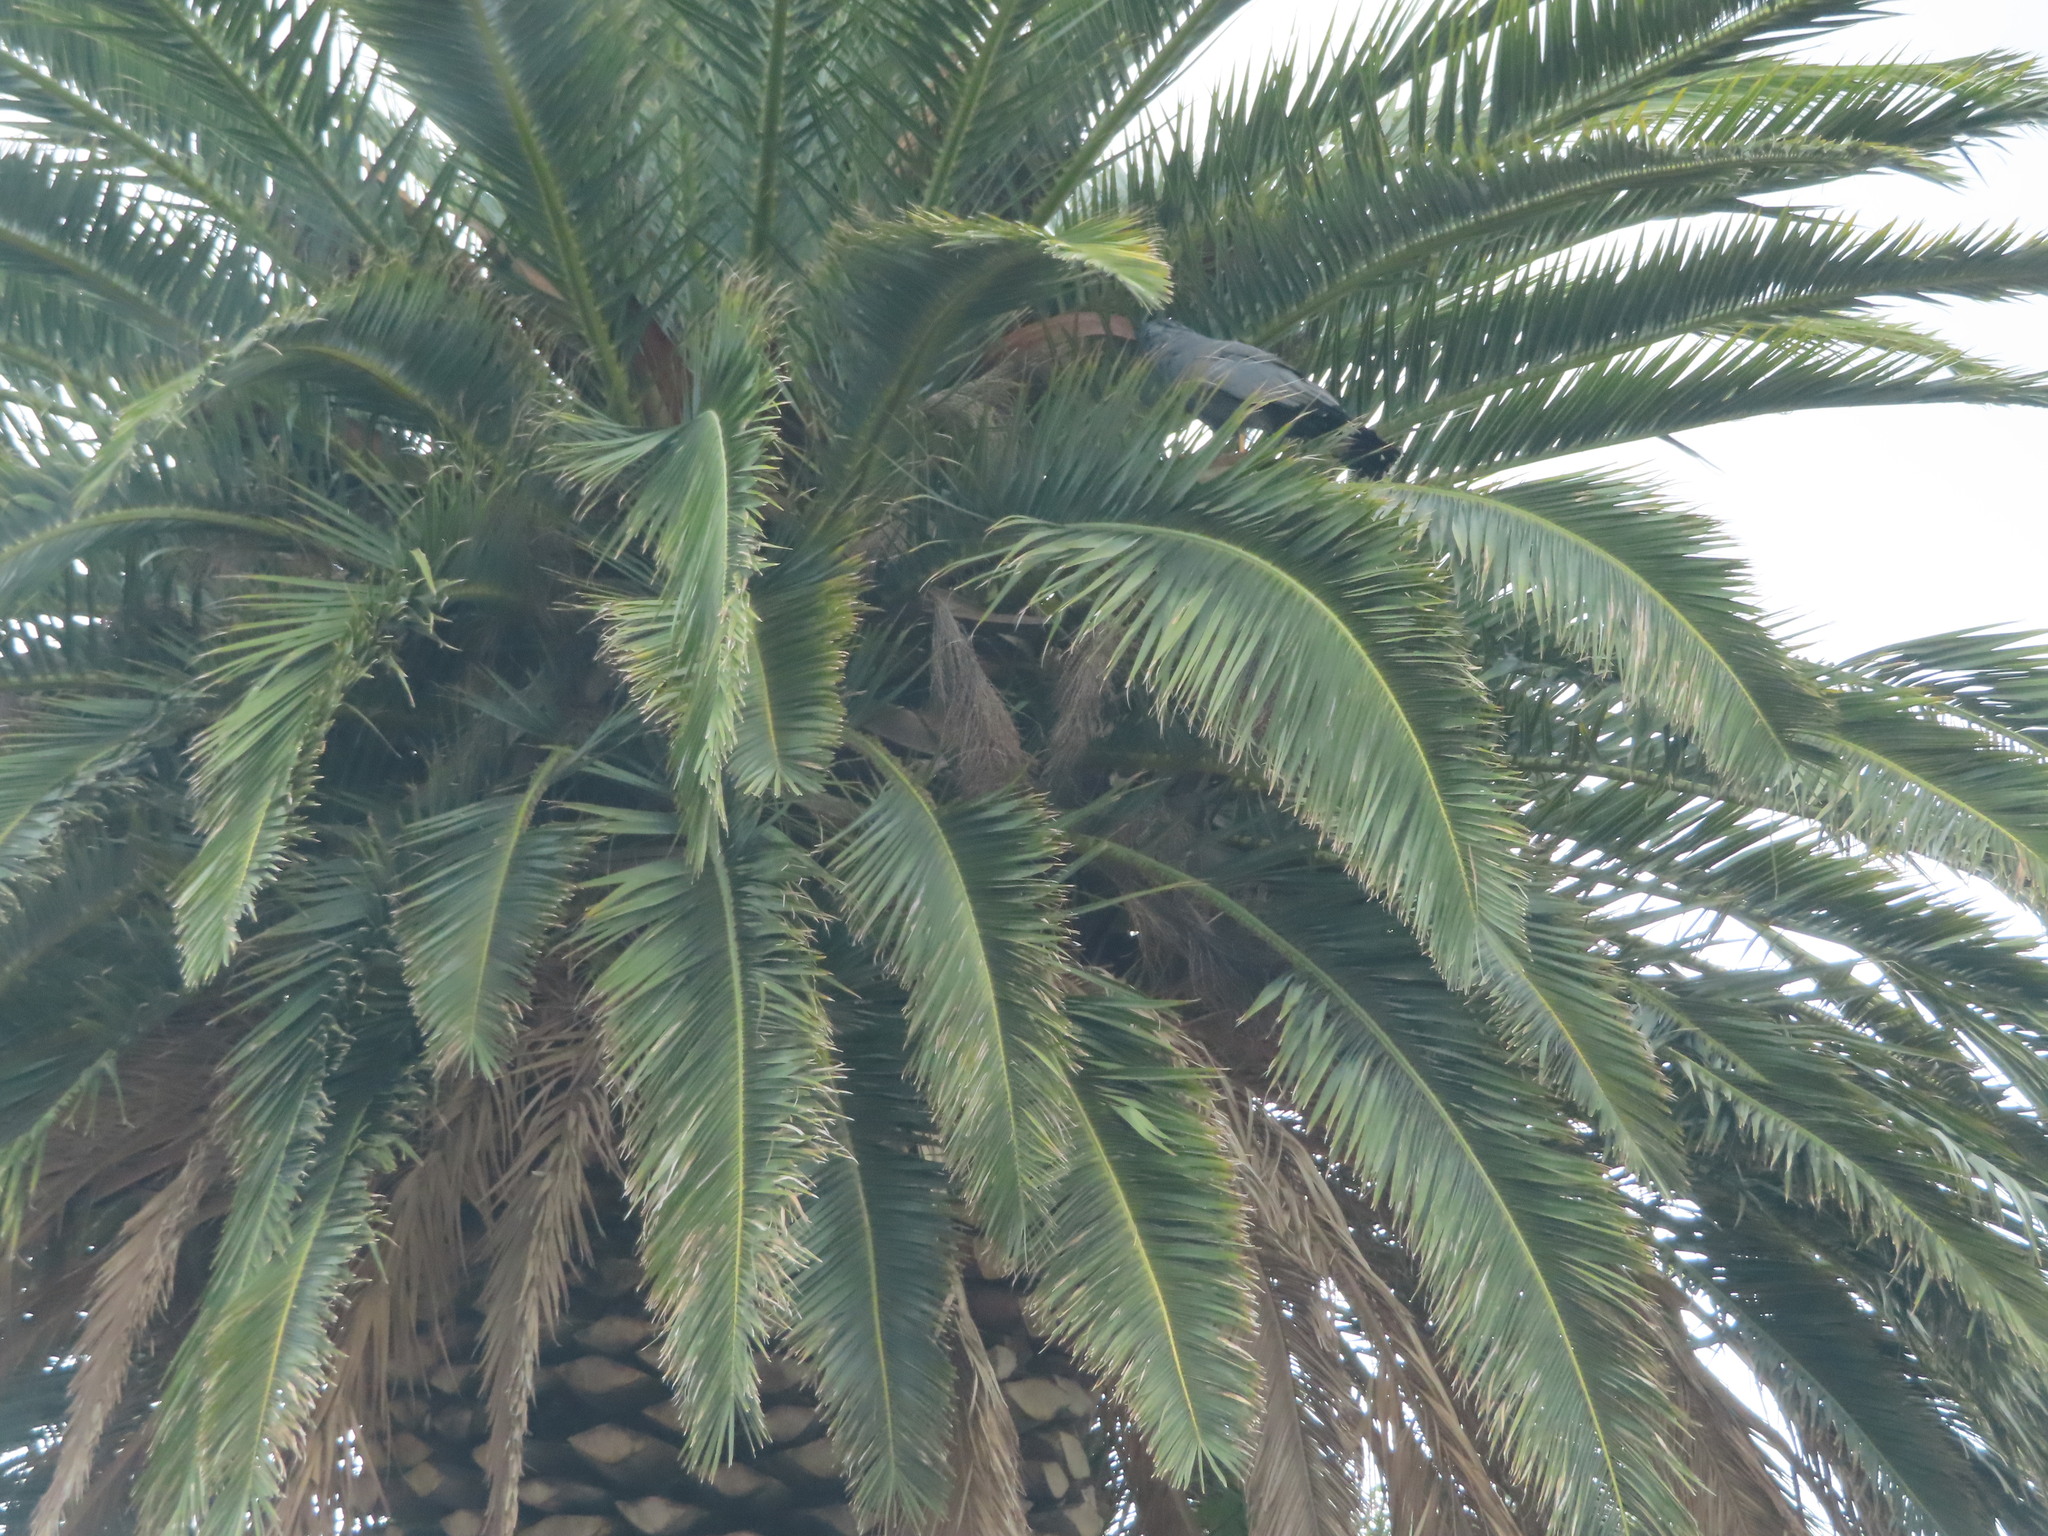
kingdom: Animalia
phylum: Chordata
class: Aves
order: Accipitriformes
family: Accipitridae
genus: Polyboroides
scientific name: Polyboroides typus
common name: African harrier-hawk
